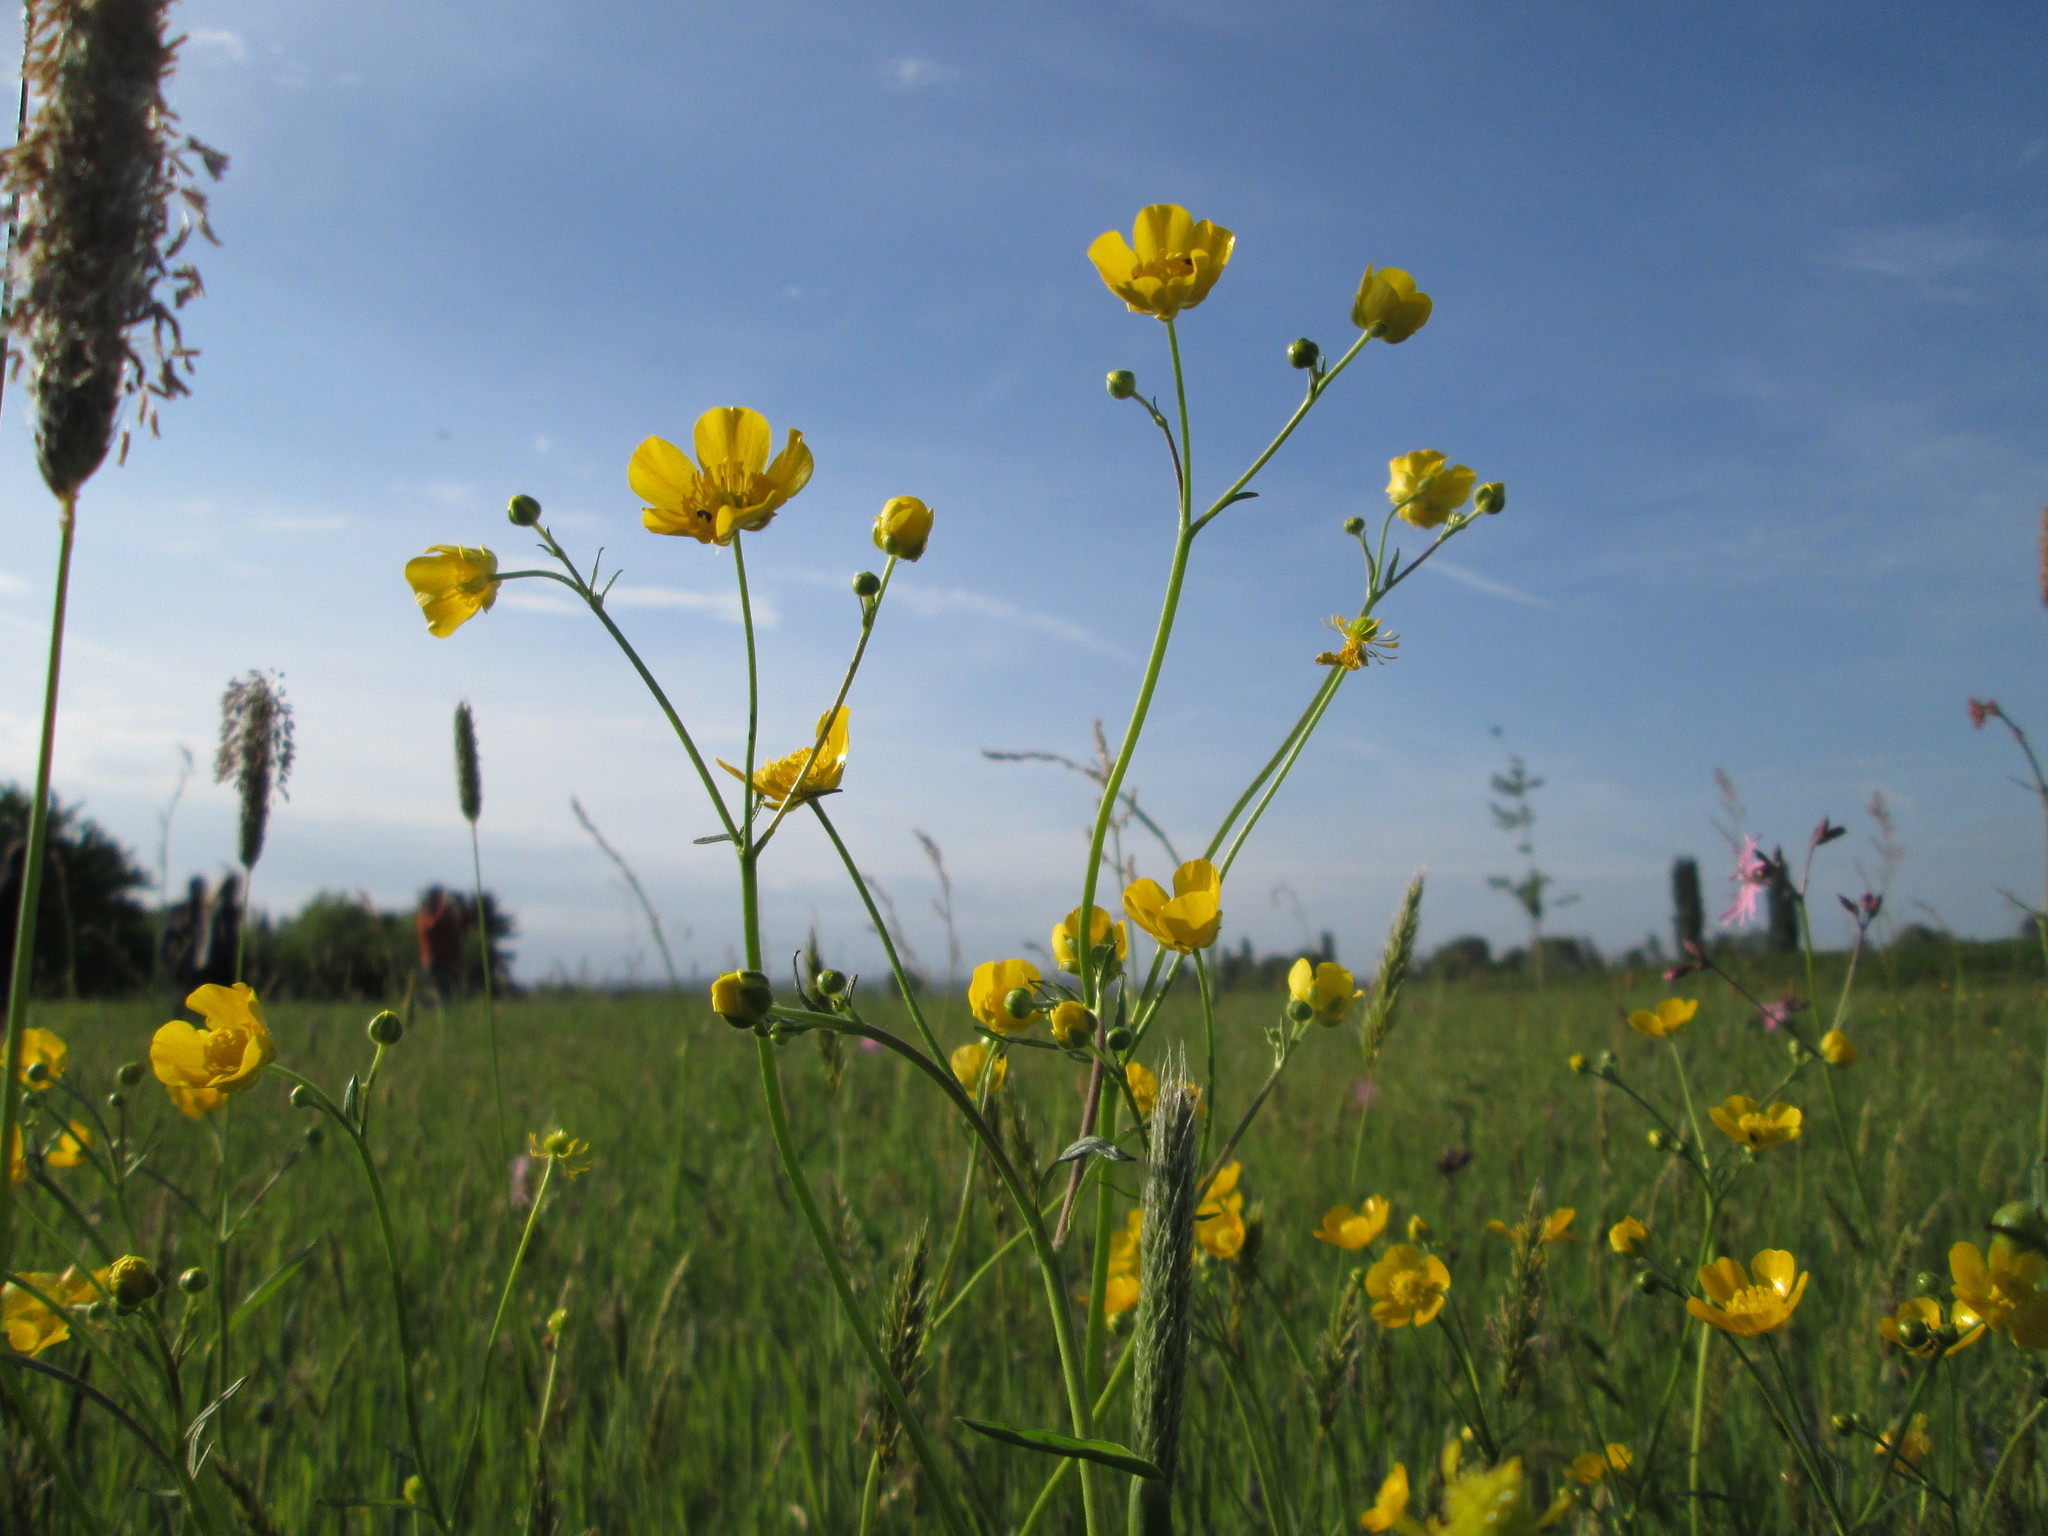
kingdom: Plantae
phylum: Tracheophyta
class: Magnoliopsida
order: Ranunculales
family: Ranunculaceae
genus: Ranunculus
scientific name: Ranunculus acris
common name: Meadow buttercup
